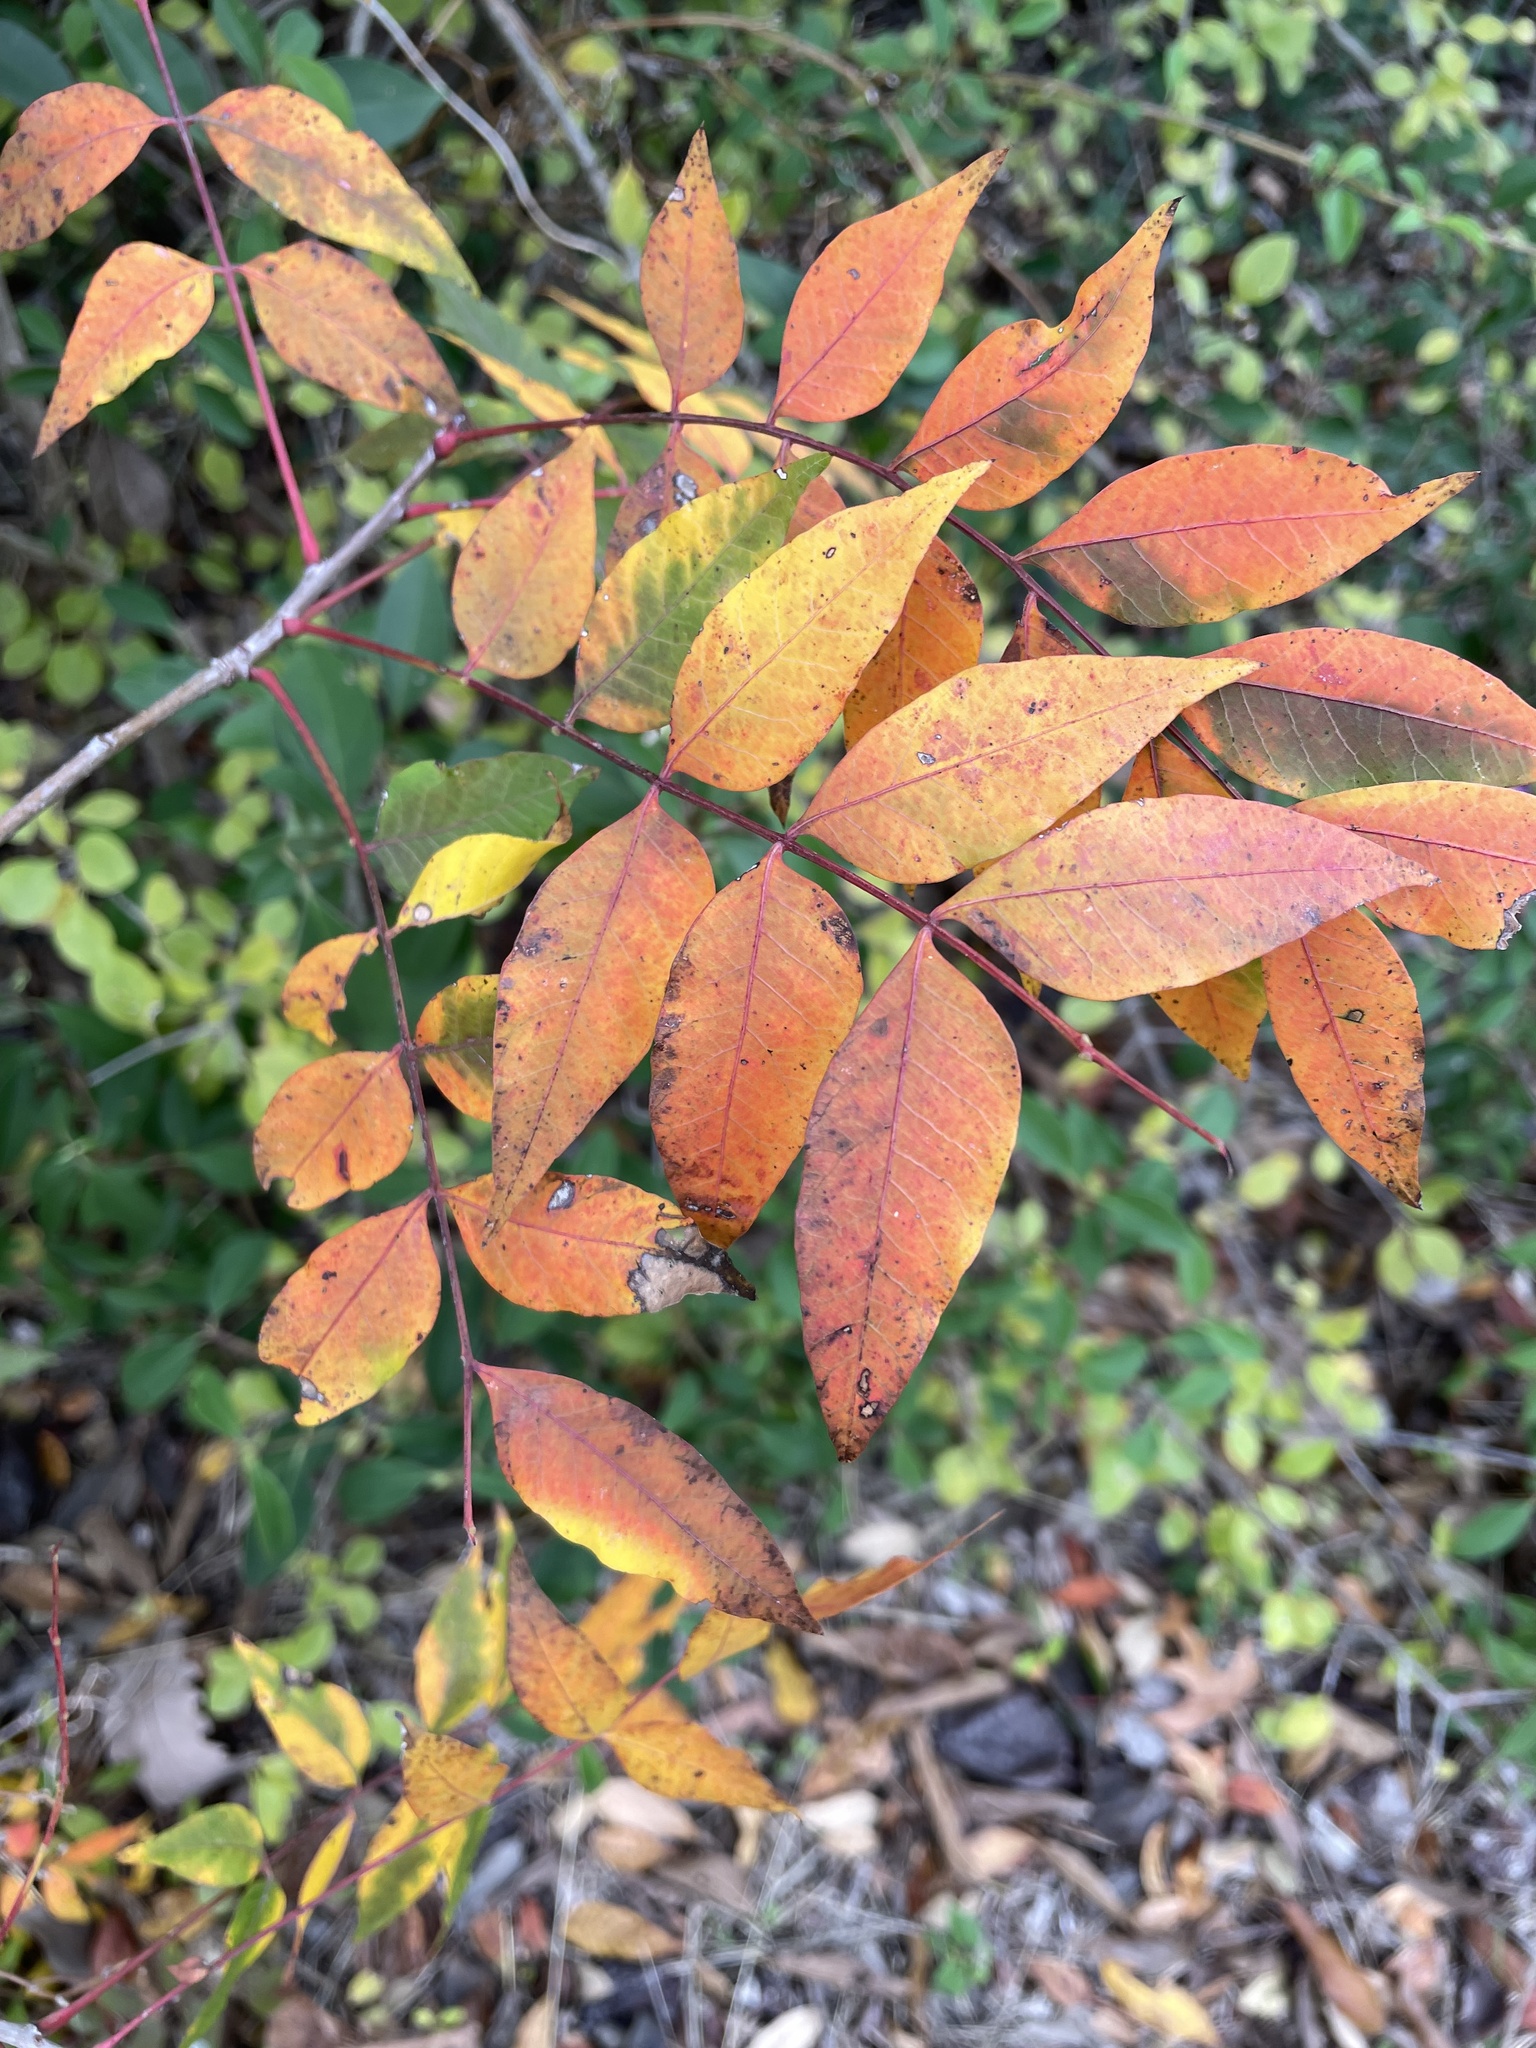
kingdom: Plantae
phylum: Tracheophyta
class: Magnoliopsida
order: Sapindales
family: Anacardiaceae
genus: Pistacia
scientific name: Pistacia chinensis
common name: Chinese pistache
